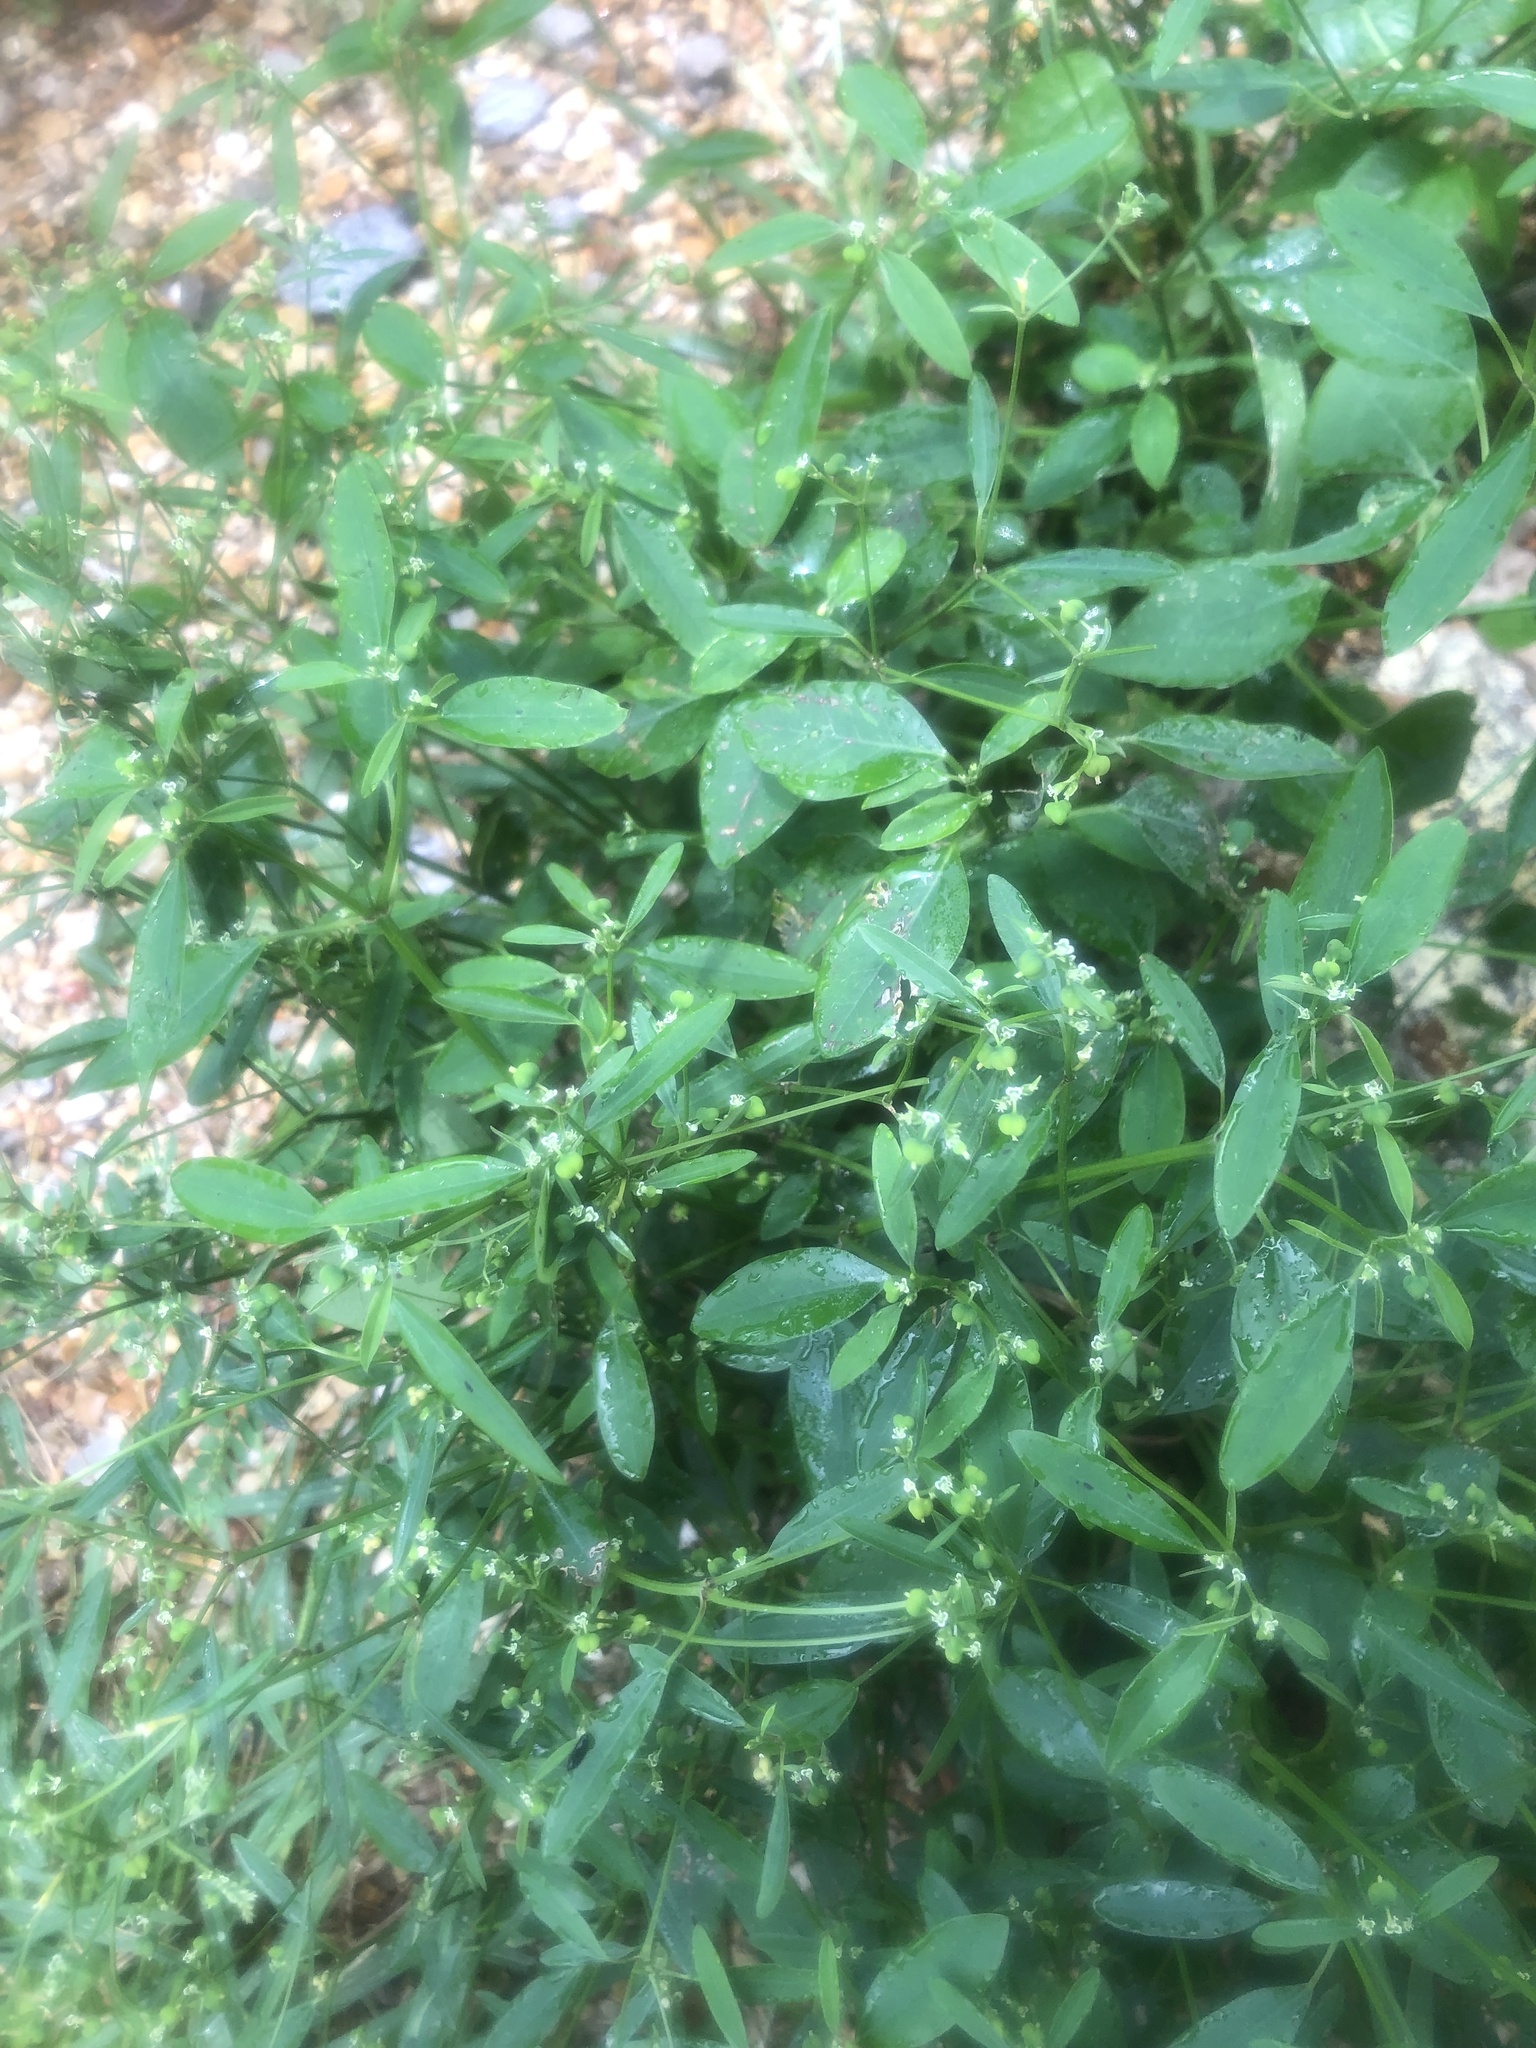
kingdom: Plantae
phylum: Tracheophyta
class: Magnoliopsida
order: Malpighiales
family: Euphorbiaceae
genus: Euphorbia
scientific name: Euphorbia graminea
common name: Grassleaf spurge
